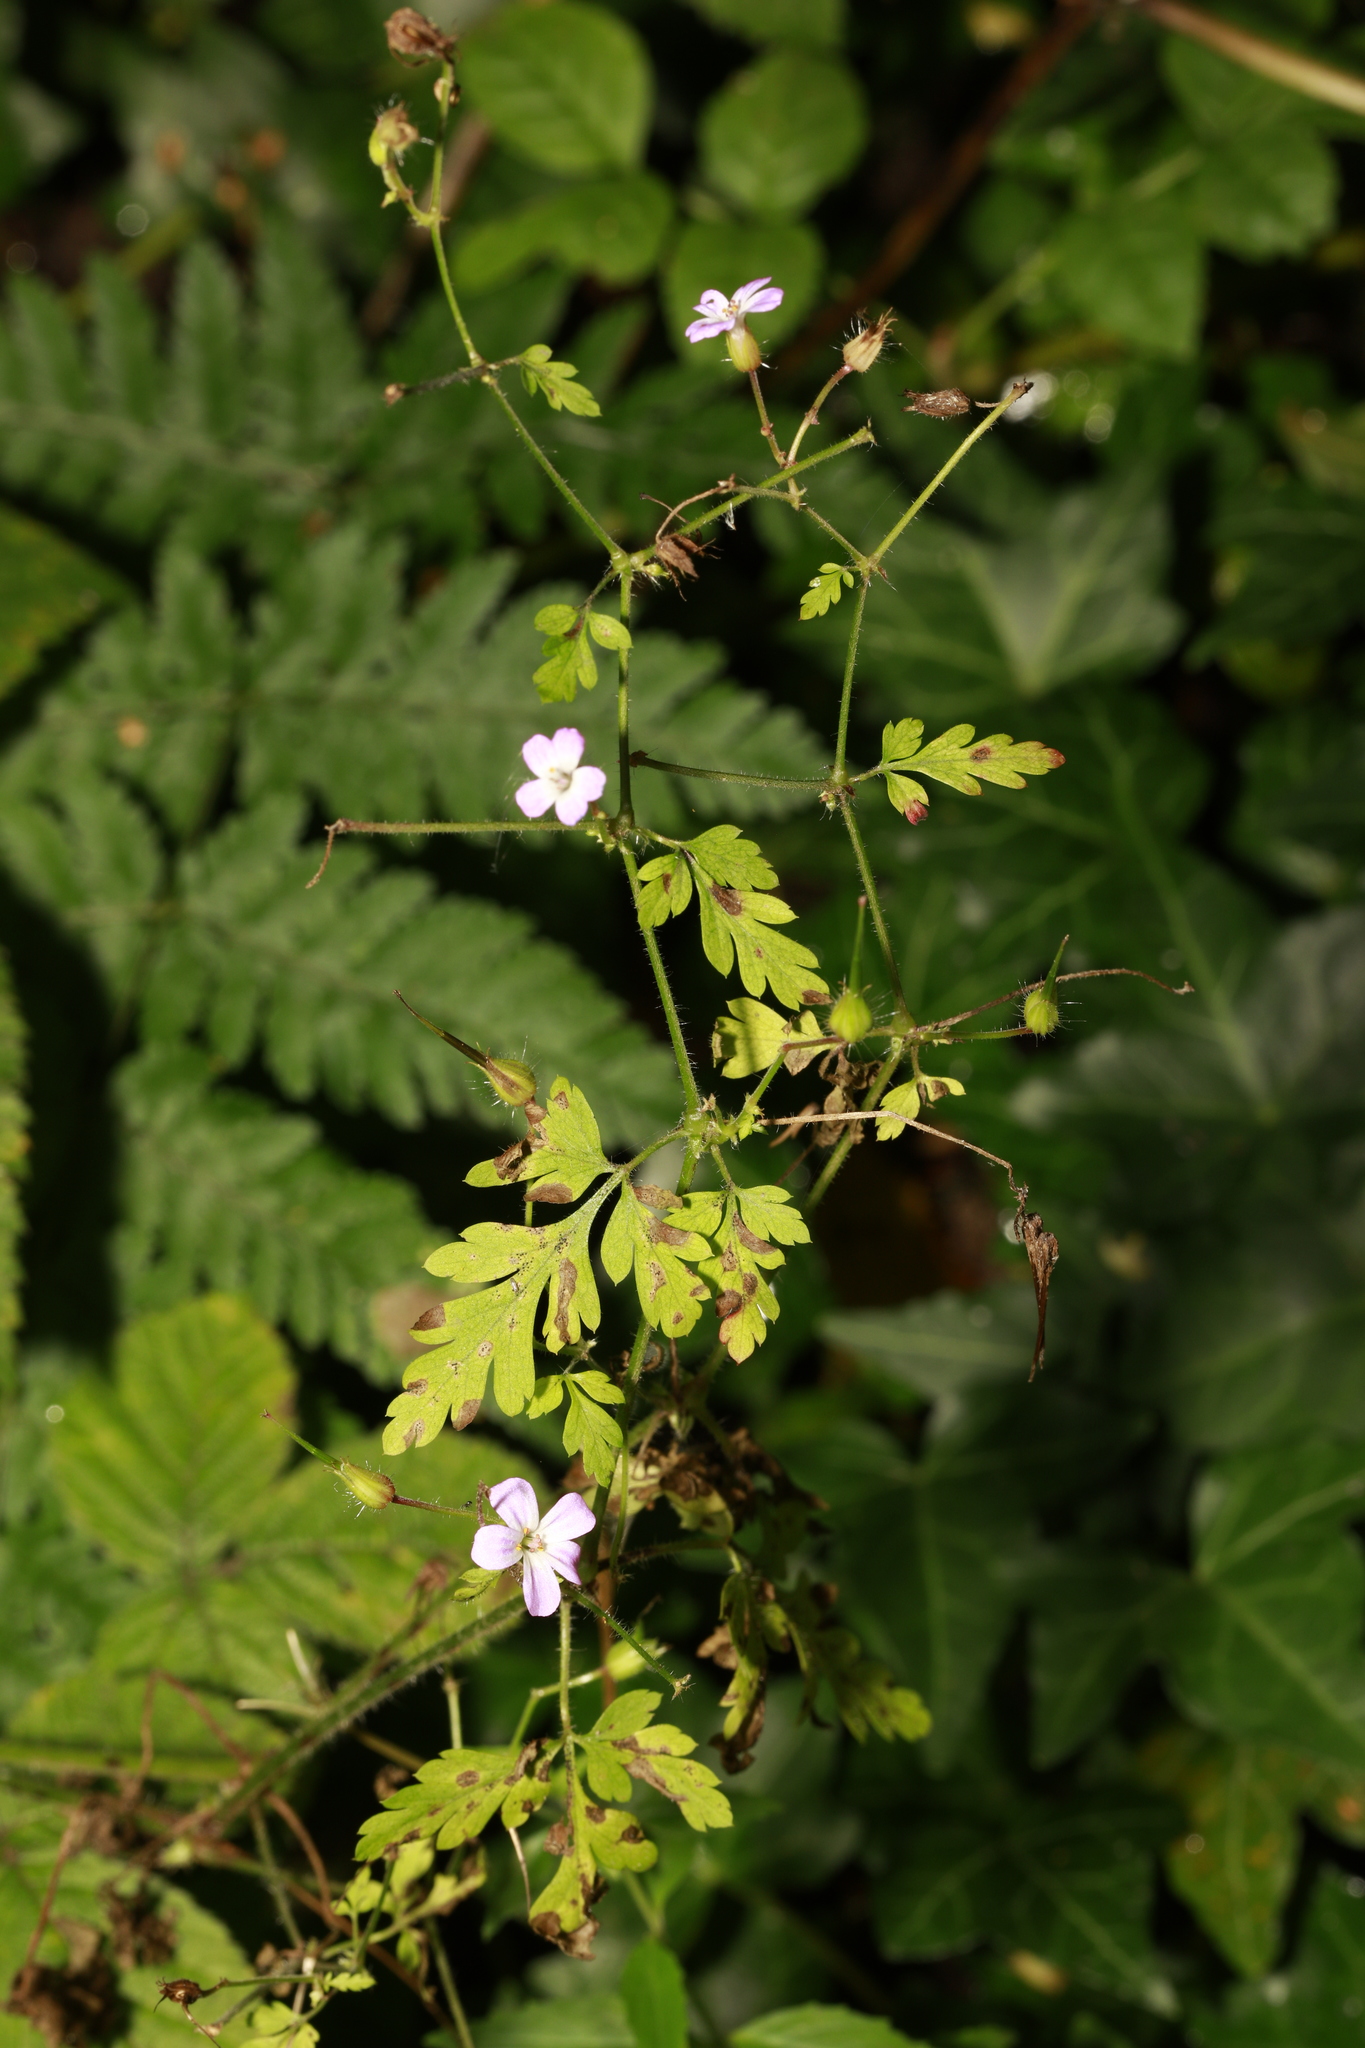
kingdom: Plantae
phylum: Tracheophyta
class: Magnoliopsida
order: Geraniales
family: Geraniaceae
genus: Geranium
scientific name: Geranium robertianum
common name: Herb-robert
